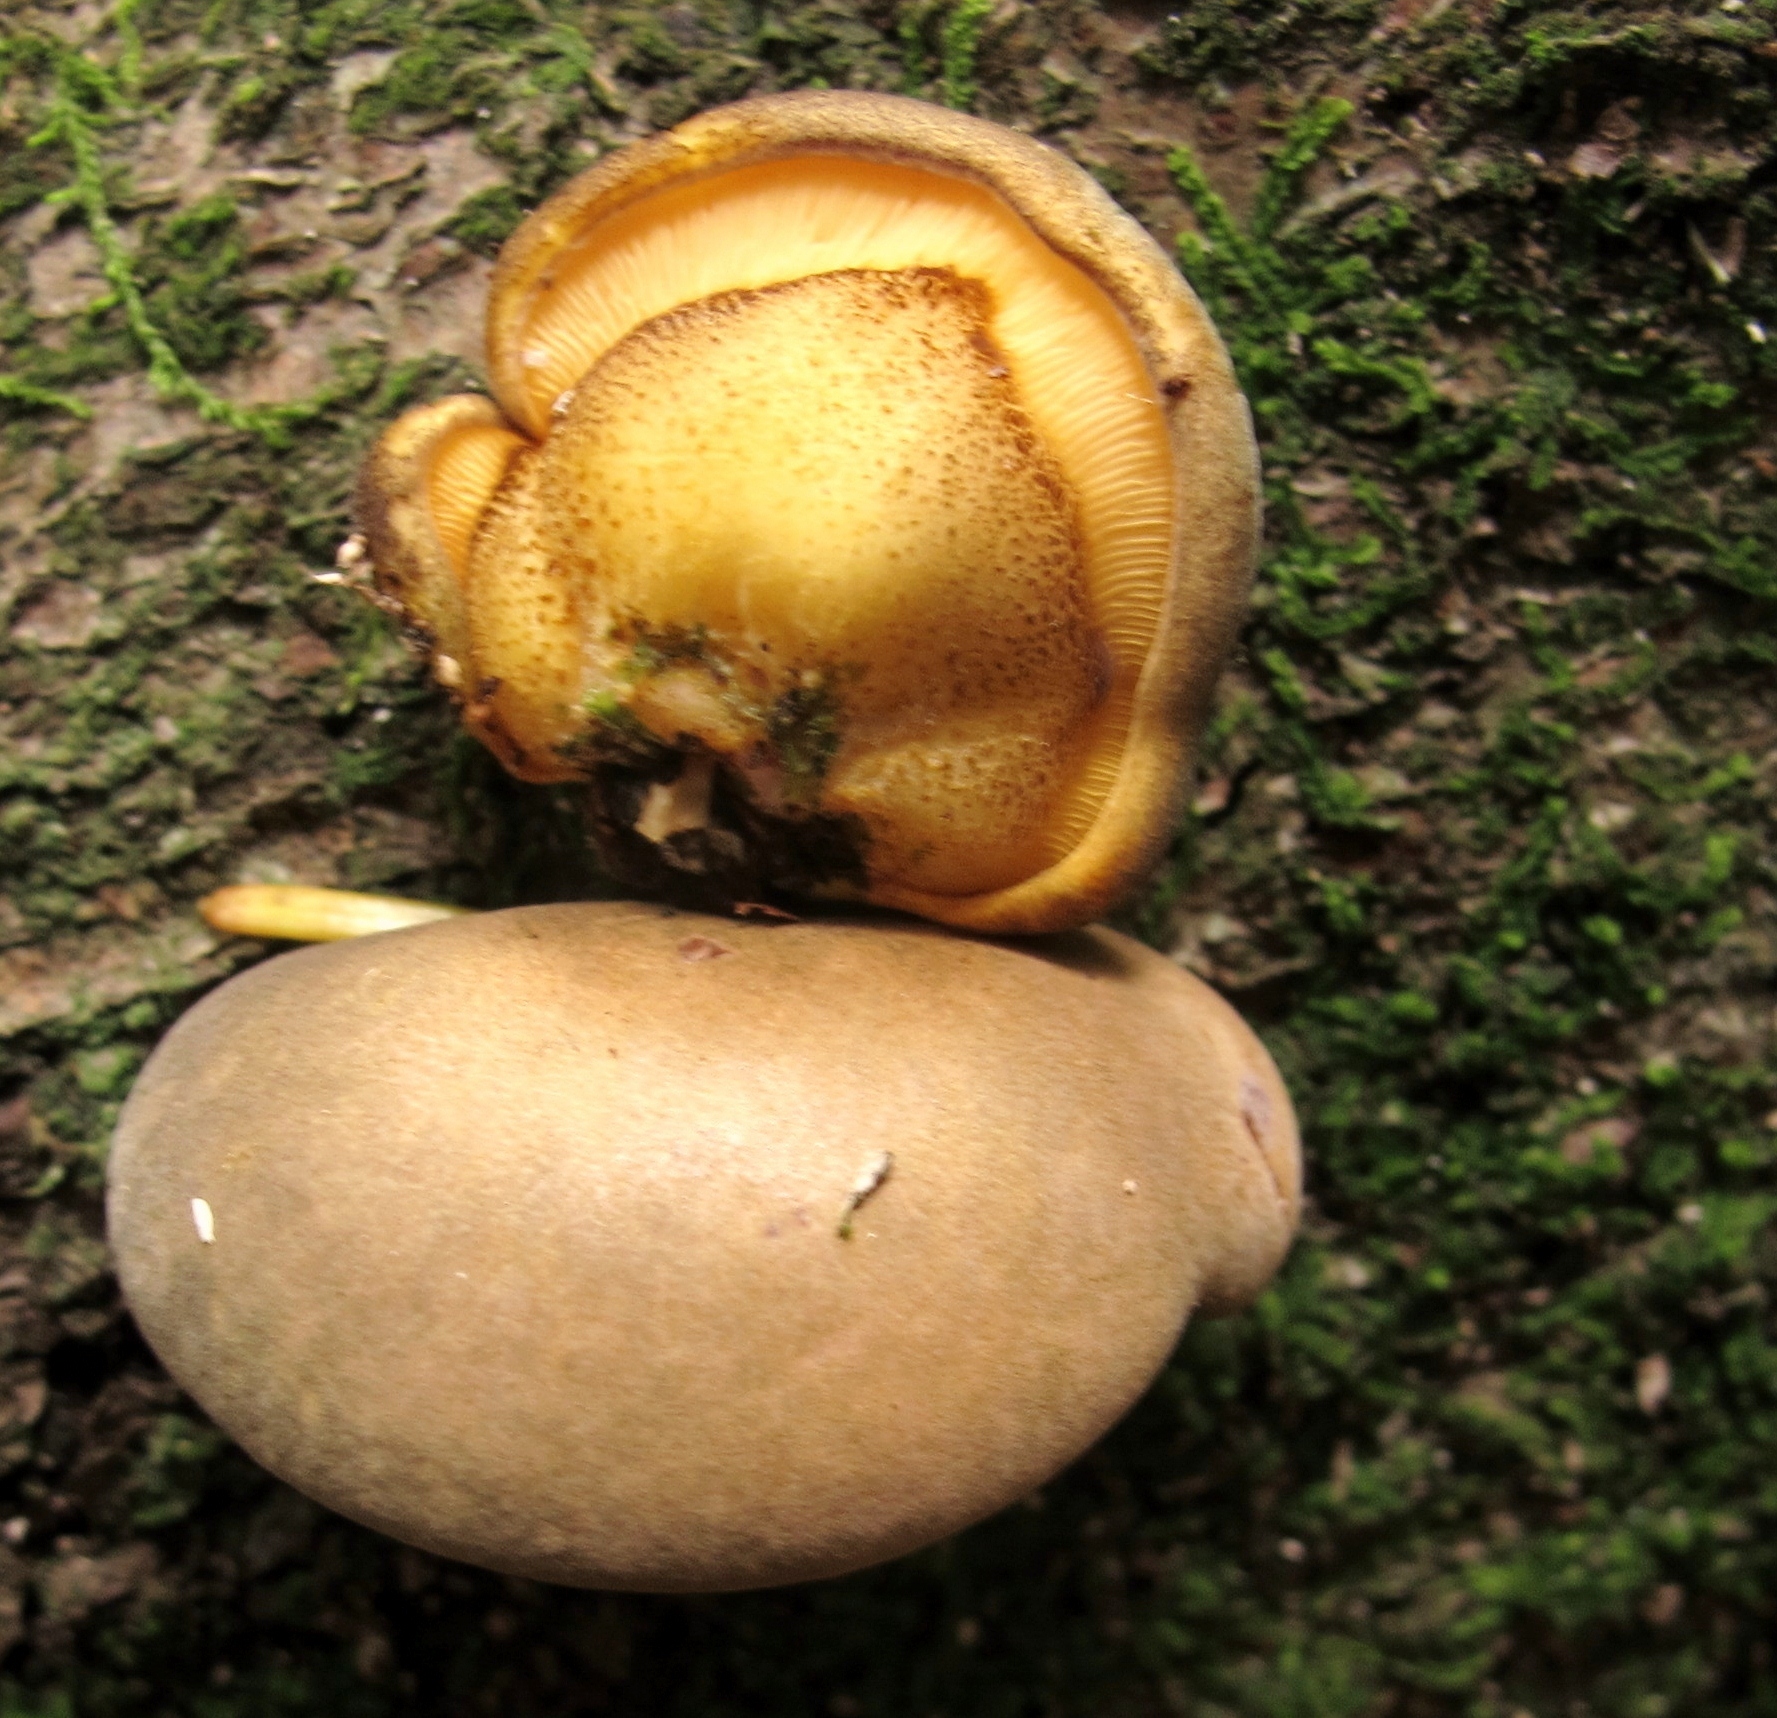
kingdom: Fungi
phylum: Basidiomycota
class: Agaricomycetes
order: Agaricales
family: Sarcomyxaceae
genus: Sarcomyxa
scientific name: Sarcomyxa serotina
